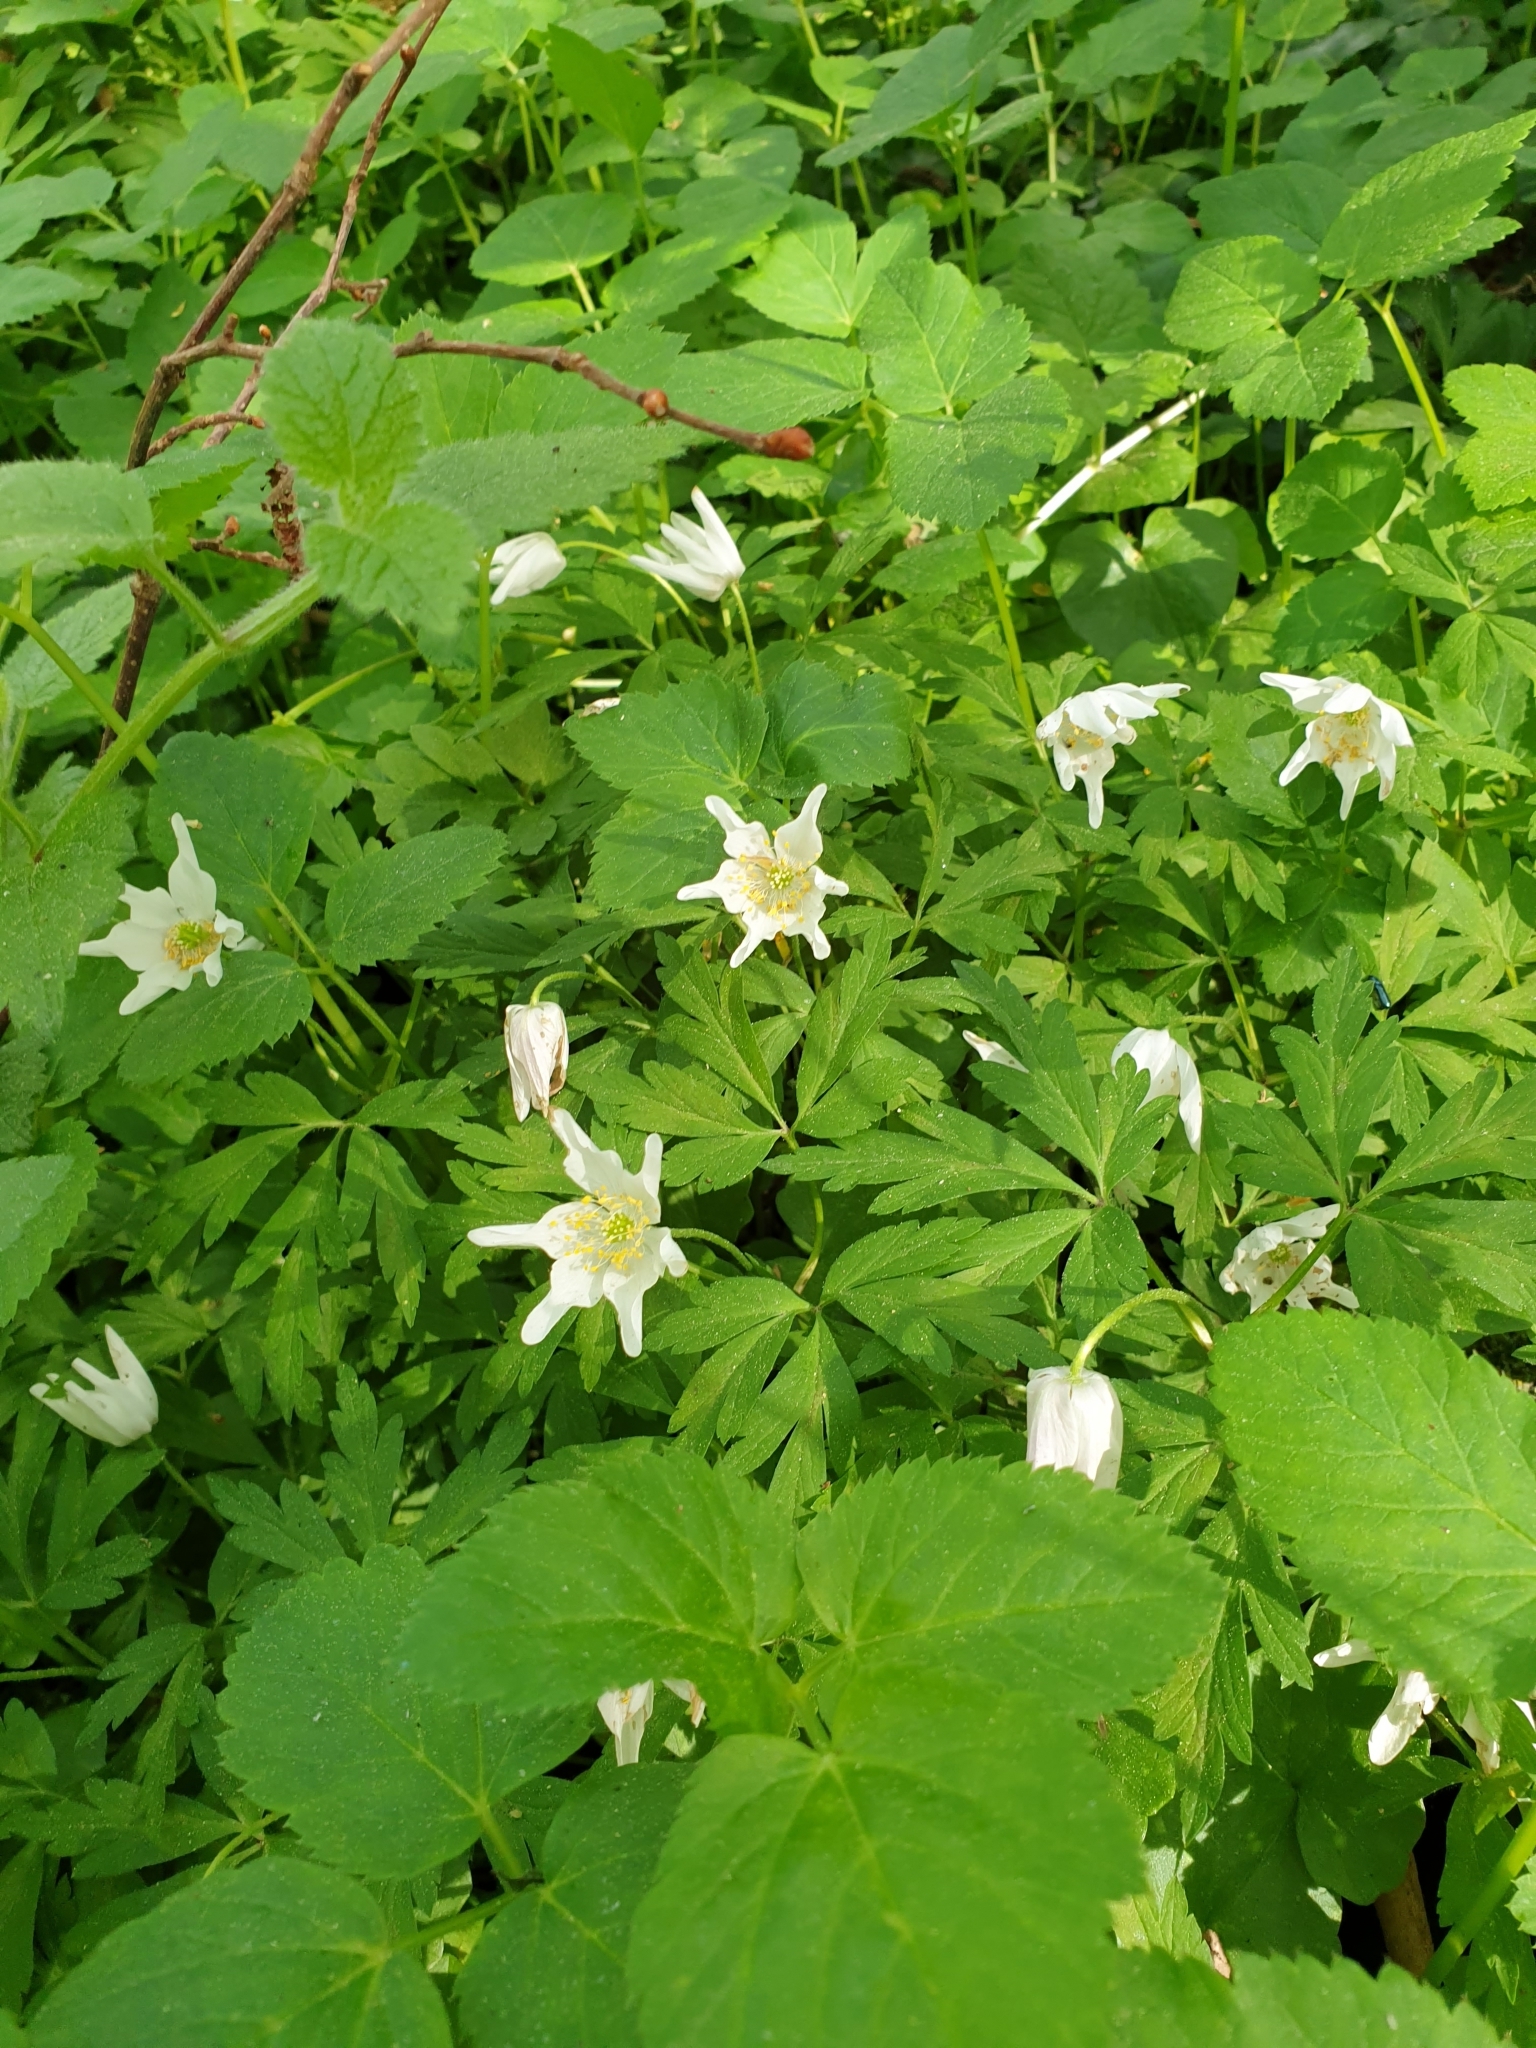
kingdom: Plantae
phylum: Tracheophyta
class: Magnoliopsida
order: Ranunculales
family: Ranunculaceae
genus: Anemone
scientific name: Anemone nemorosa
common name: Wood anemone
